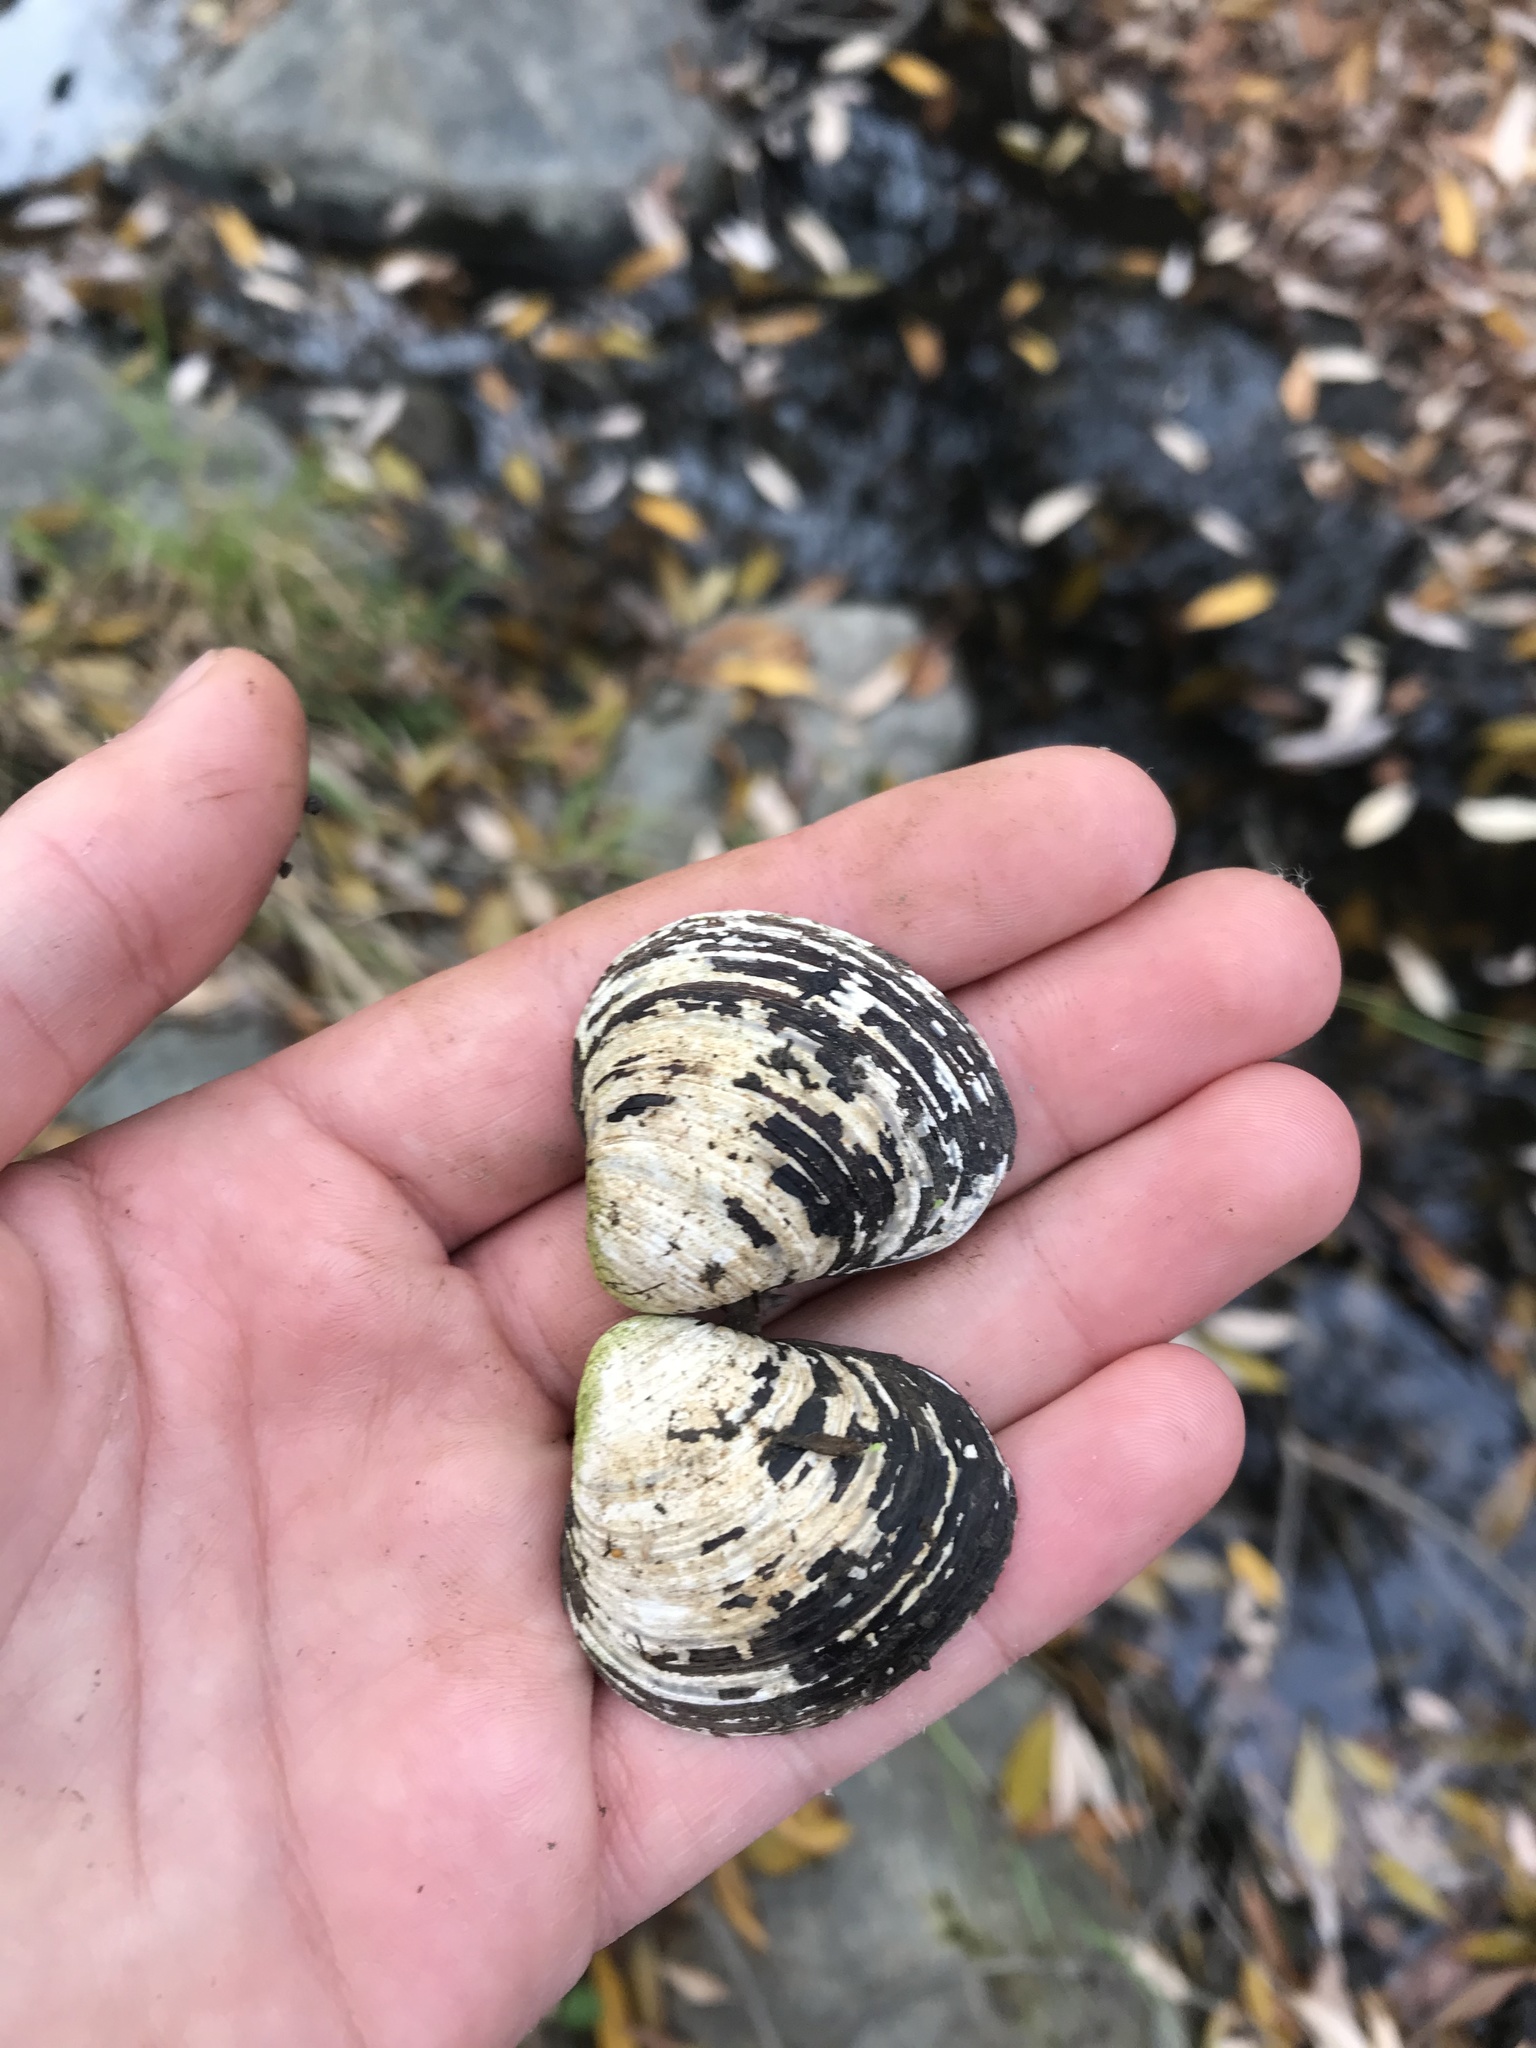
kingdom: Animalia
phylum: Mollusca
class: Bivalvia
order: Venerida
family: Cyrenidae
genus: Corbicula
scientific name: Corbicula fluminea
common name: Asian clam
